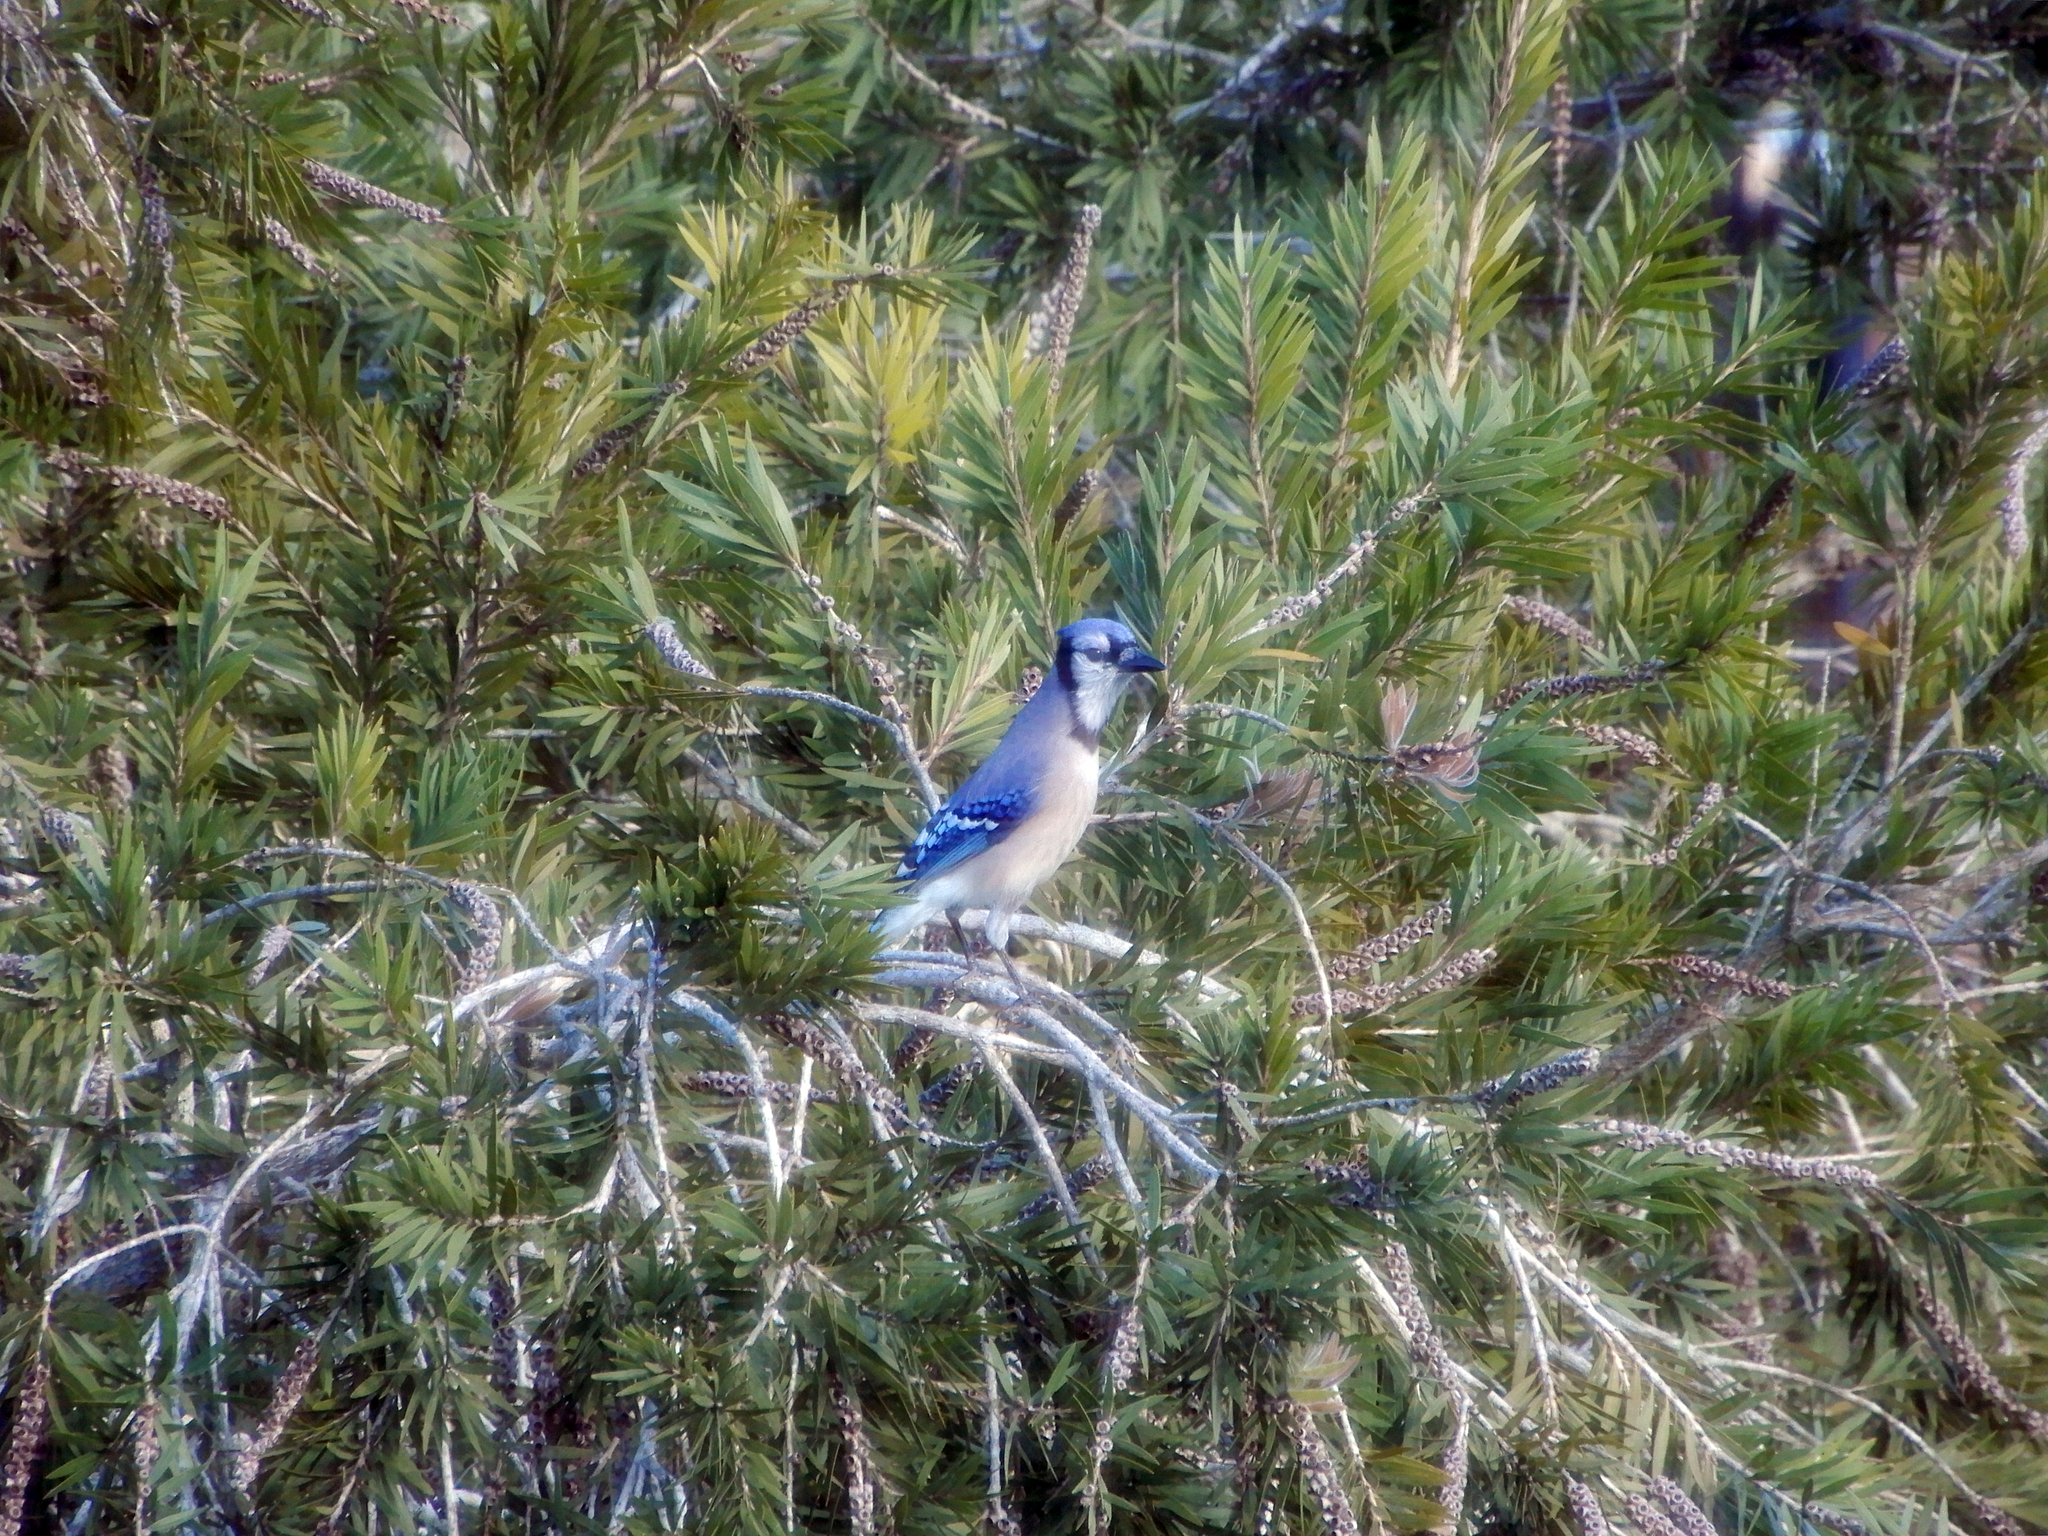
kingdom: Animalia
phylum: Chordata
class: Aves
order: Passeriformes
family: Corvidae
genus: Cyanocitta
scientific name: Cyanocitta cristata
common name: Blue jay
